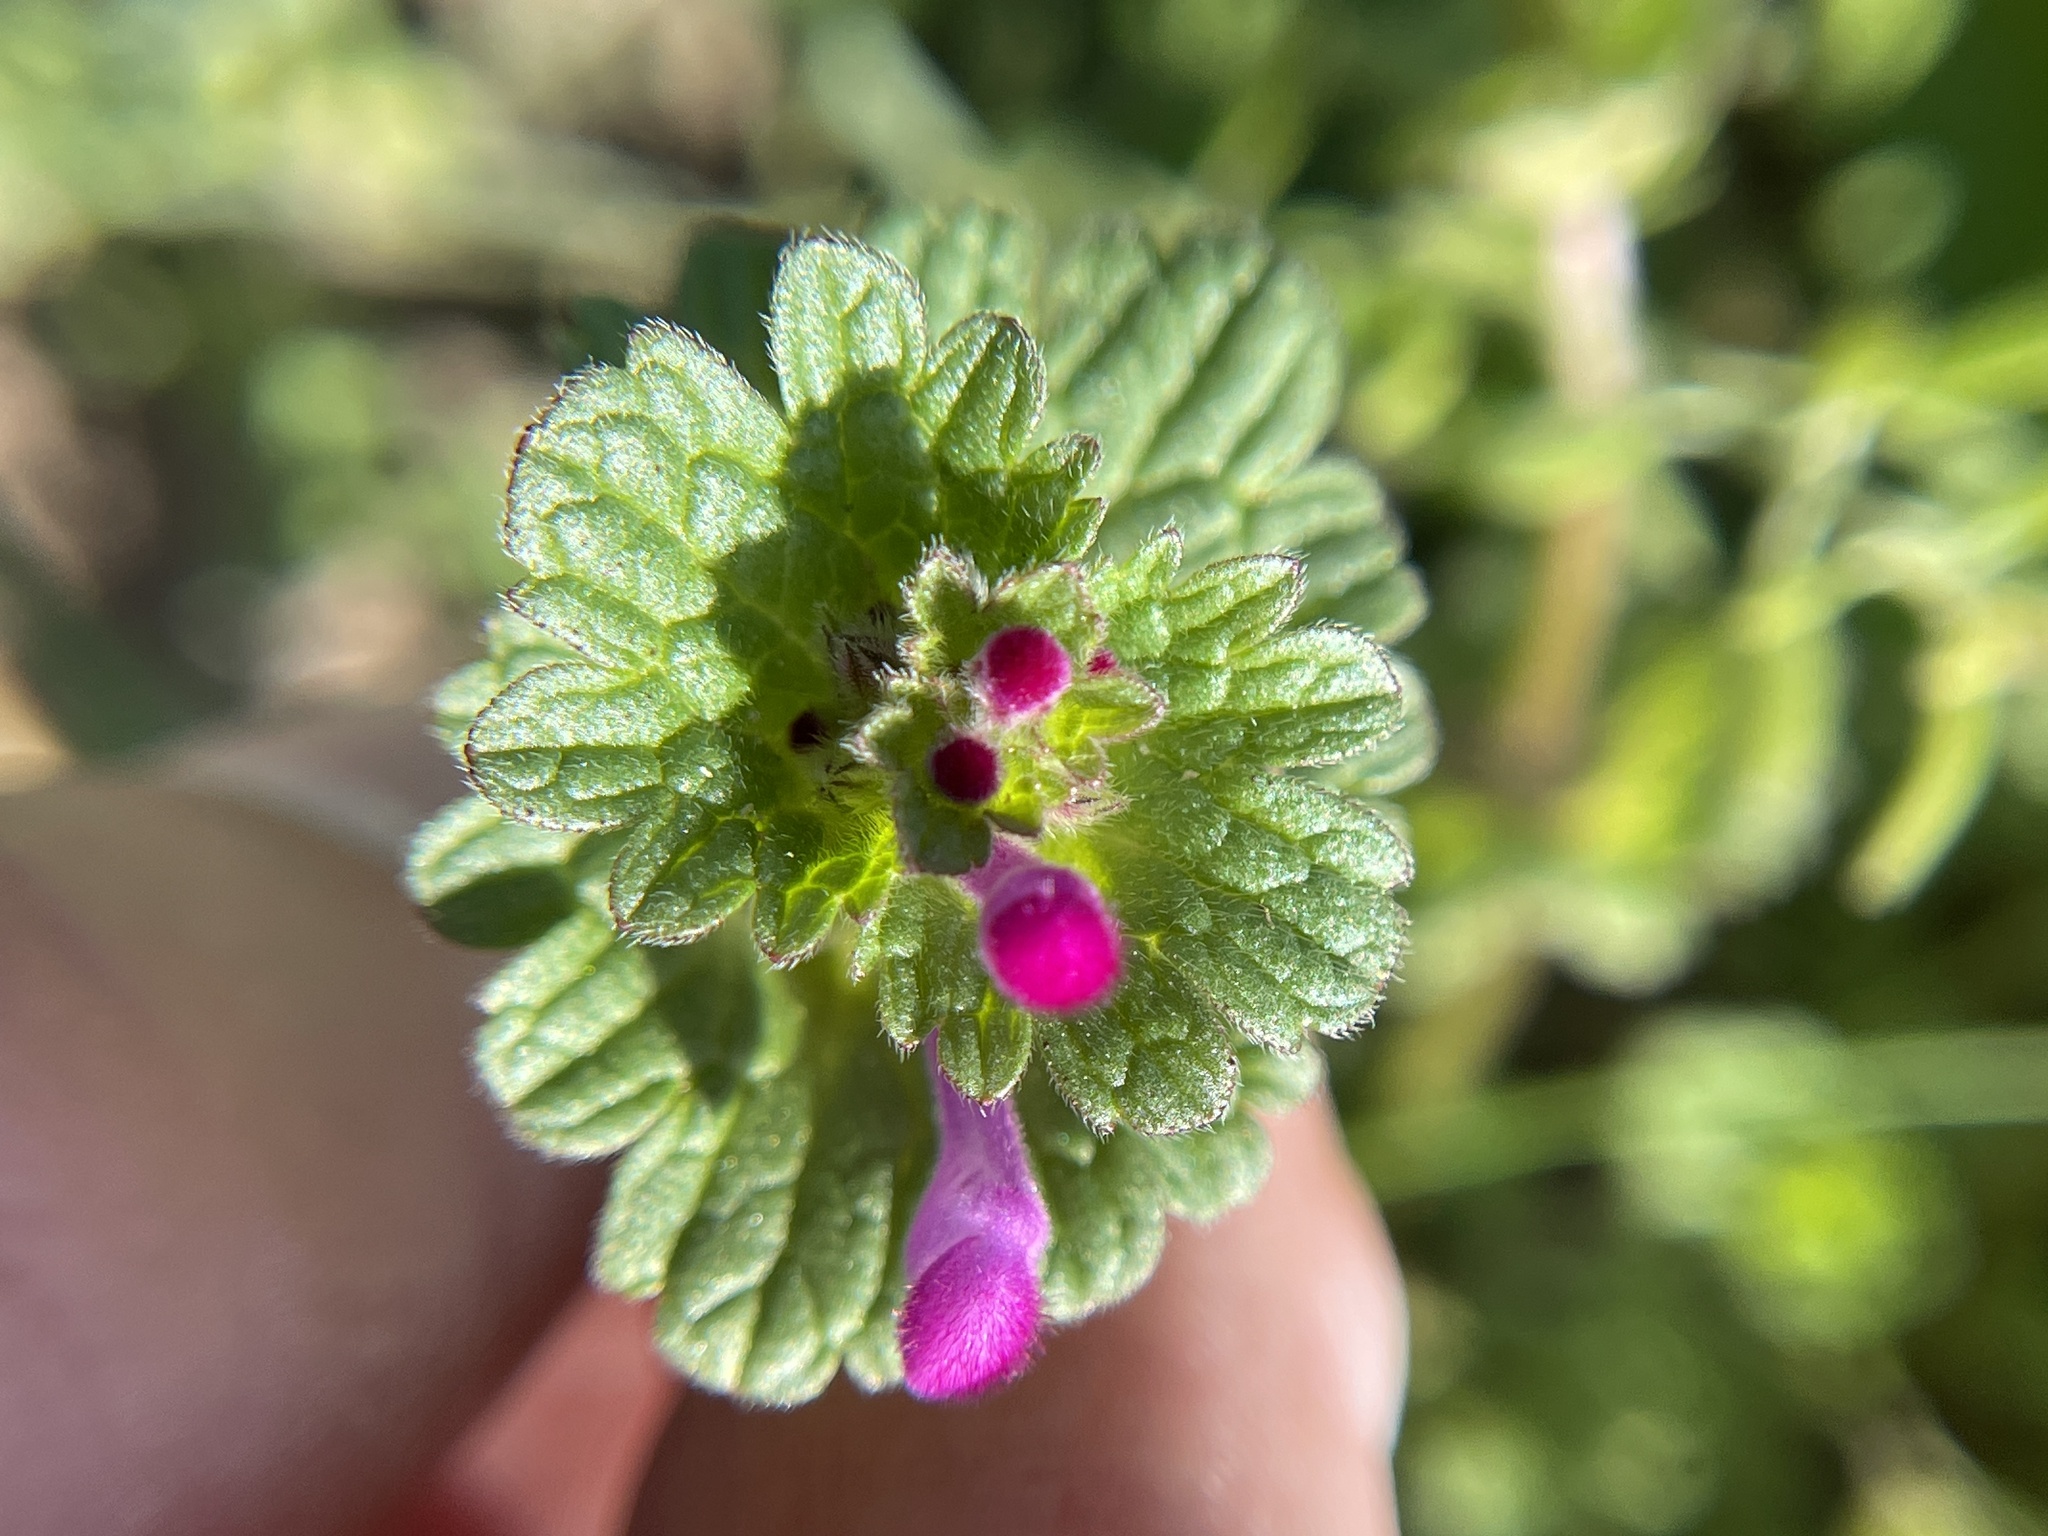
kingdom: Plantae
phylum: Tracheophyta
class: Magnoliopsida
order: Lamiales
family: Lamiaceae
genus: Lamium
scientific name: Lamium amplexicaule
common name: Henbit dead-nettle
